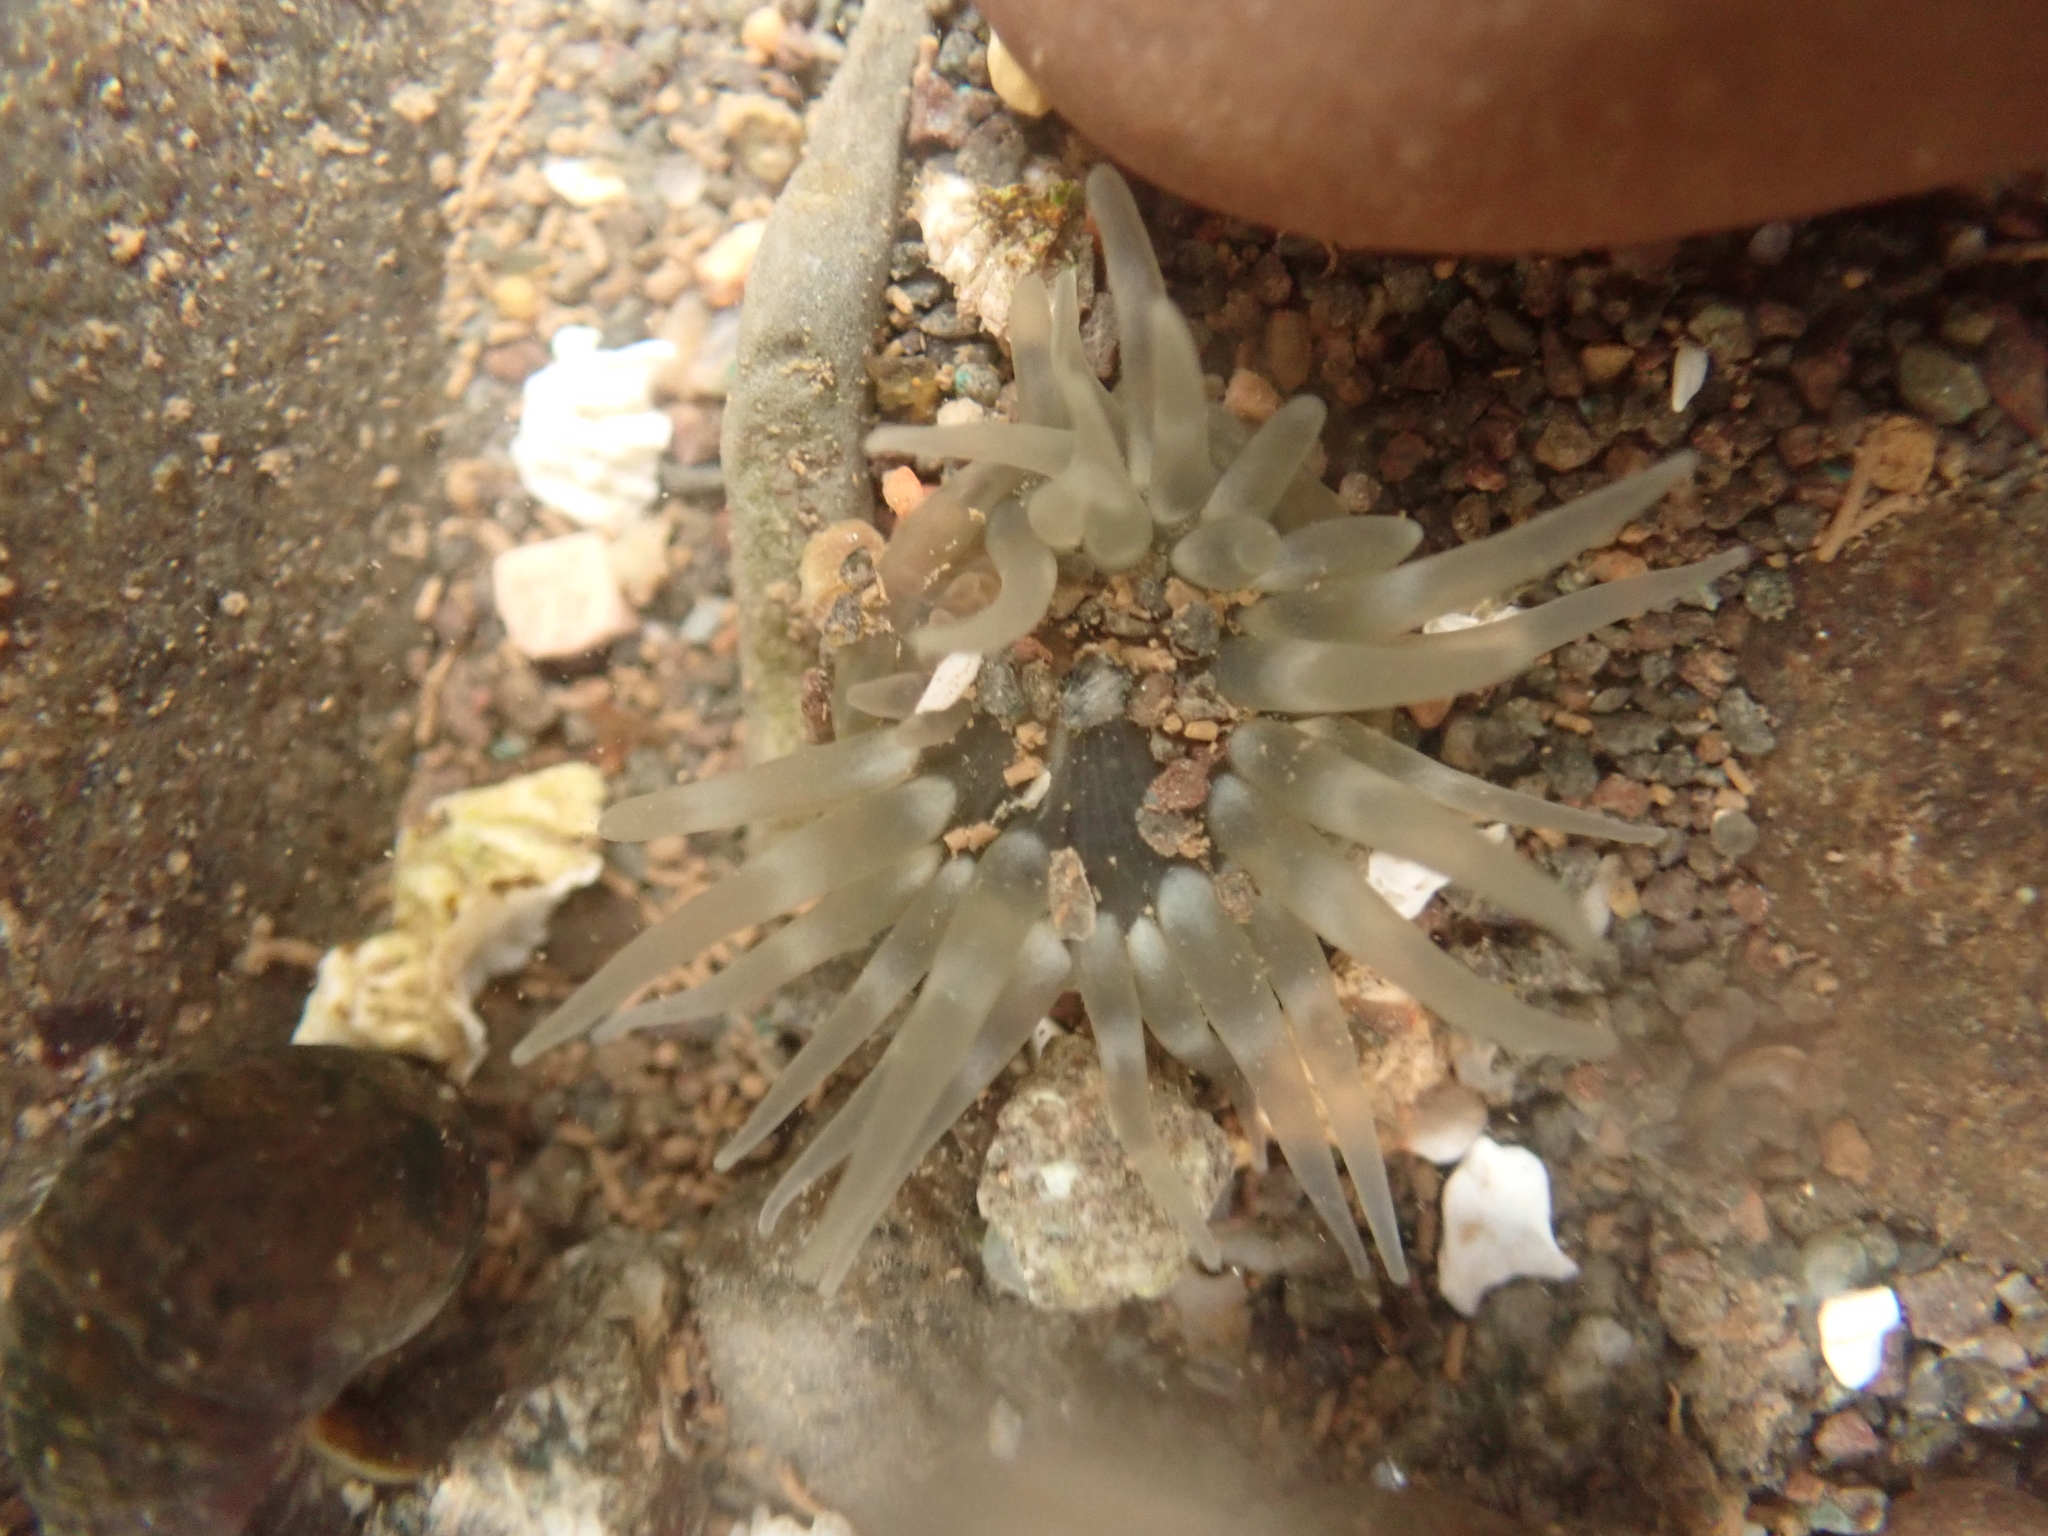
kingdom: Animalia
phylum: Cnidaria
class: Anthozoa
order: Actiniaria
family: Actiniidae
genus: Aulactinia
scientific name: Aulactinia stella
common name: Silver-spotted sea anemone
